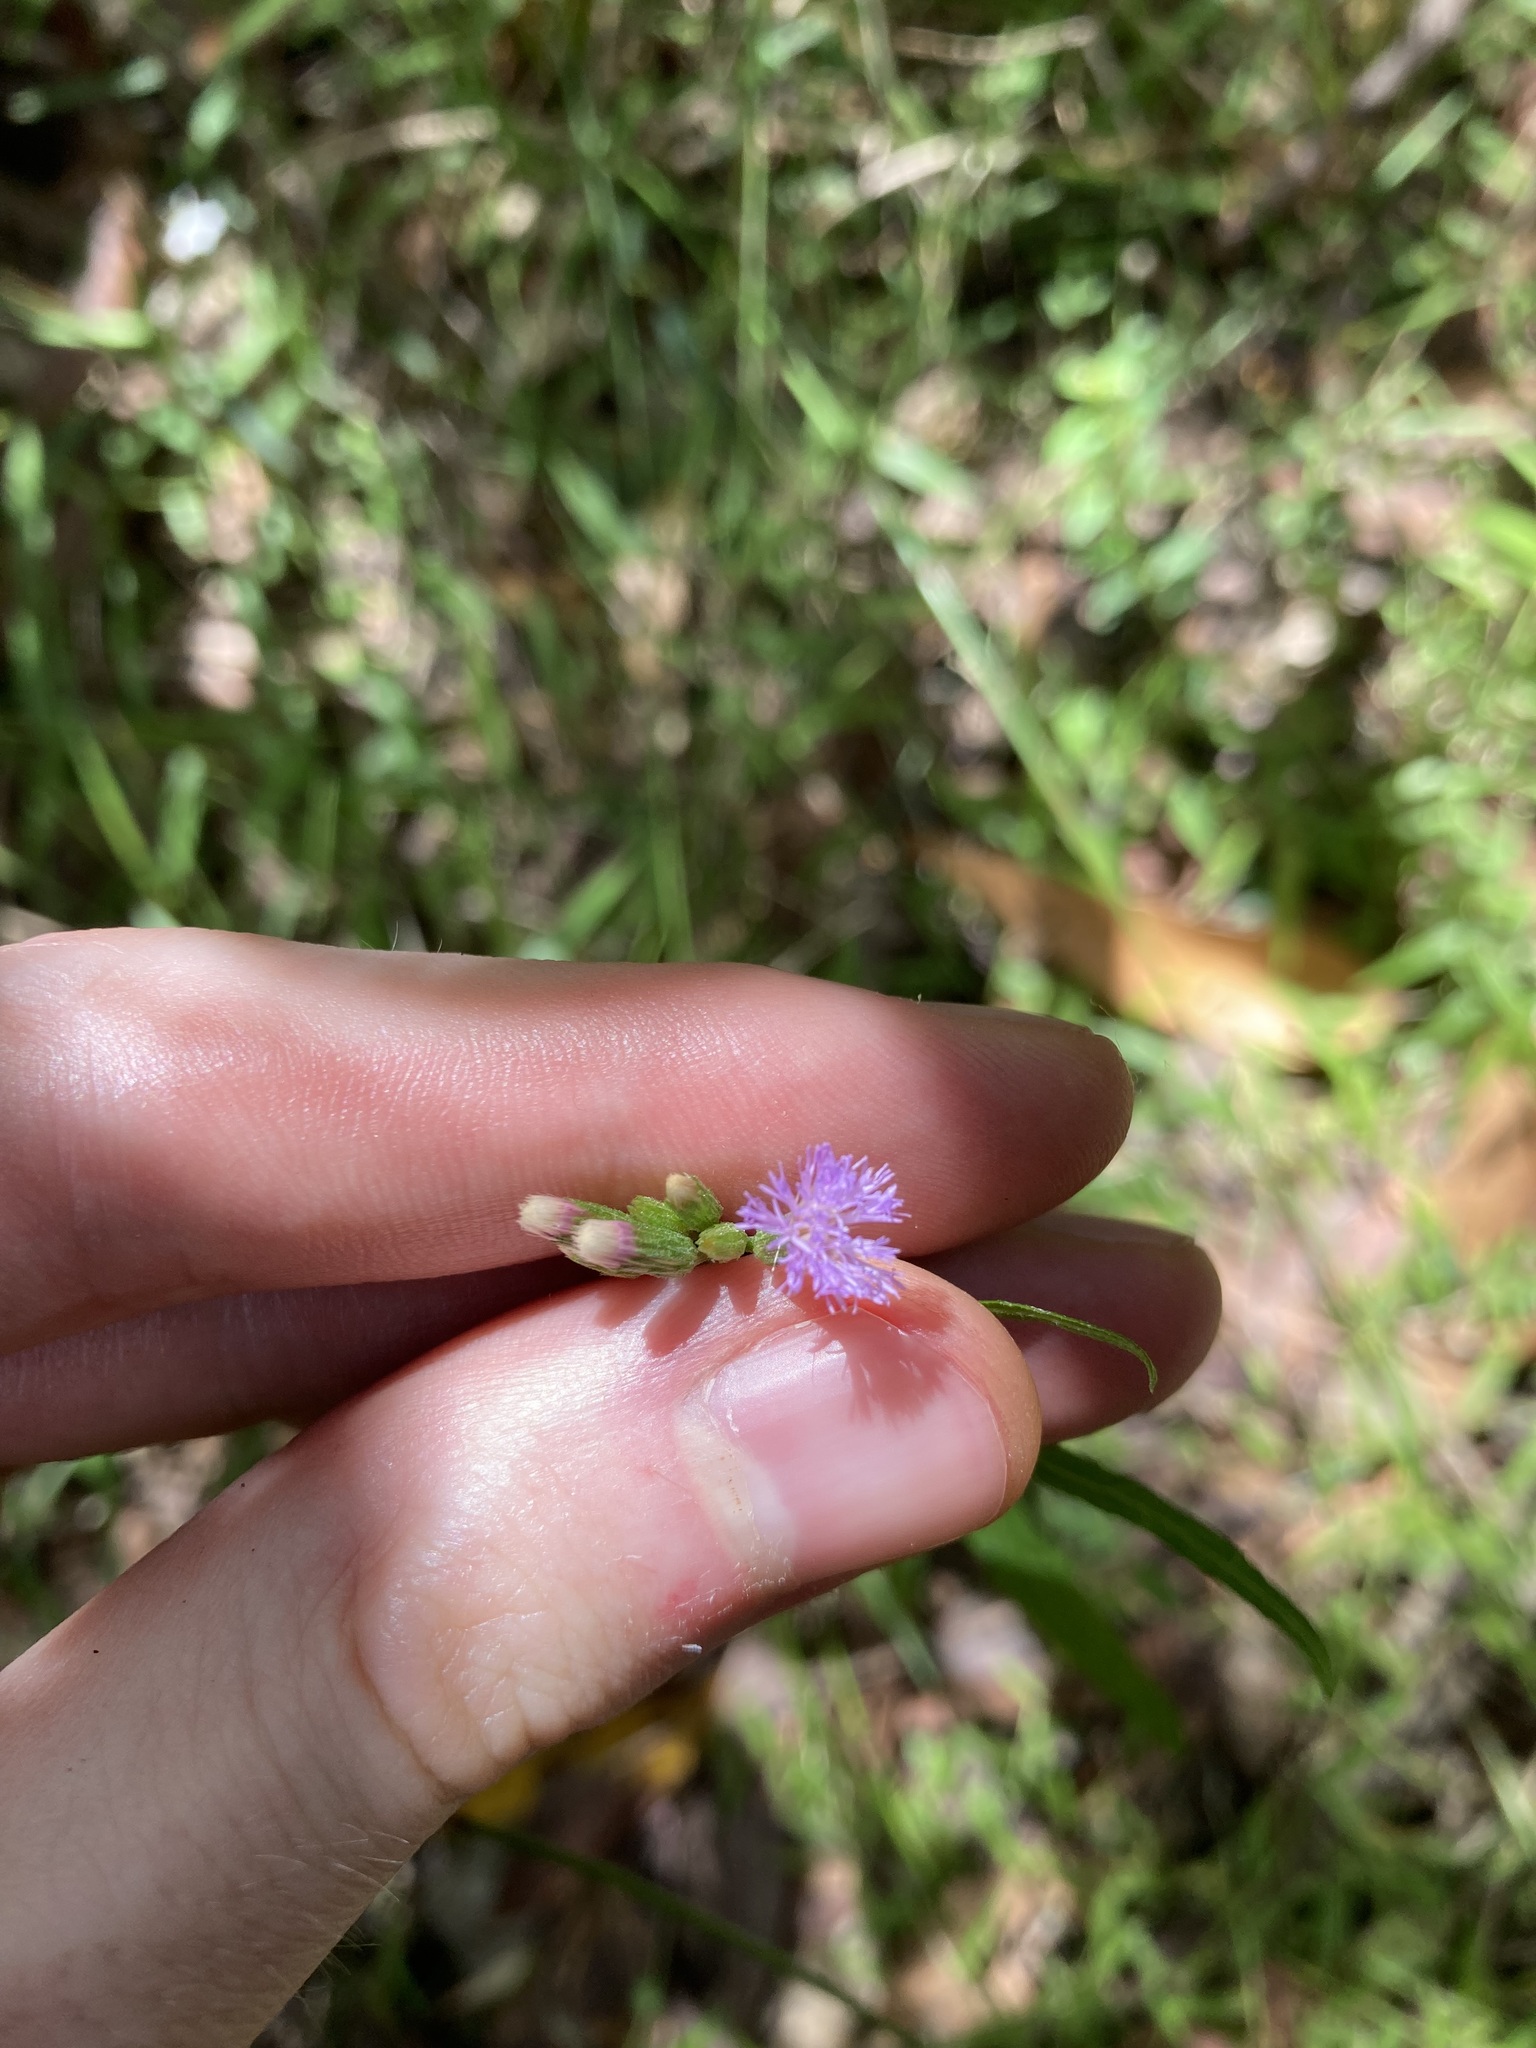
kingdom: Plantae
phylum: Tracheophyta
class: Magnoliopsida
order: Asterales
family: Asteraceae
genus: Cyanthillium
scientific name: Cyanthillium cinereum
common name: Little ironweed
